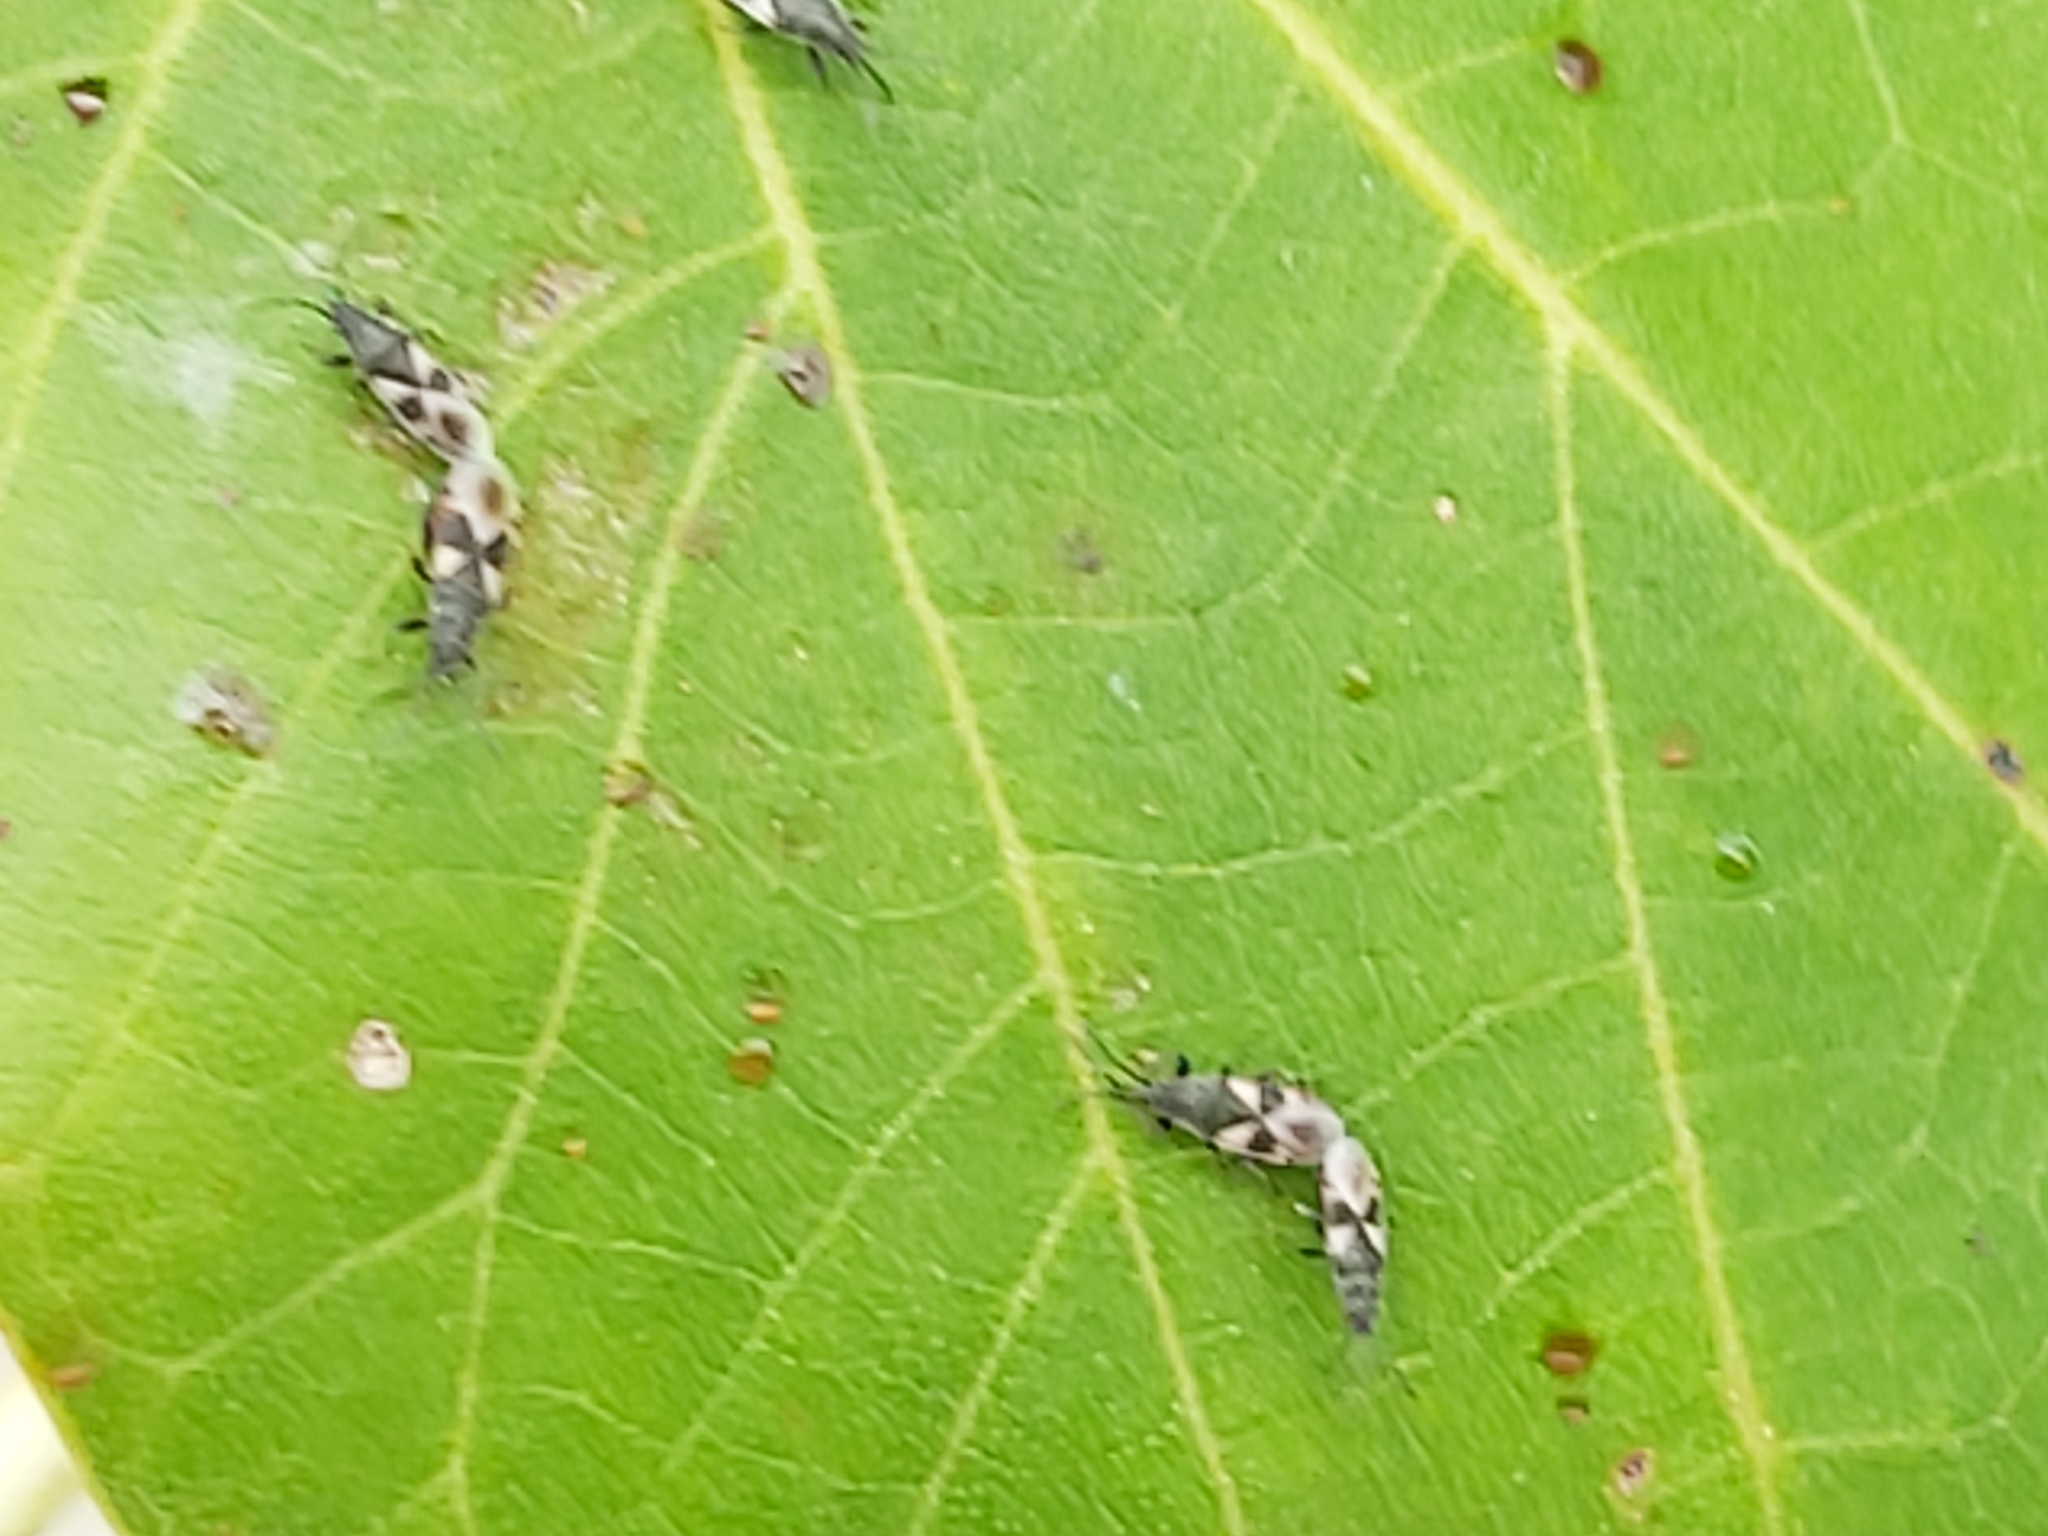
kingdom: Animalia
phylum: Arthropoda
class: Insecta
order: Hemiptera
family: Oxycarenidae
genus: Oxycarenus
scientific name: Oxycarenus luctuosus
